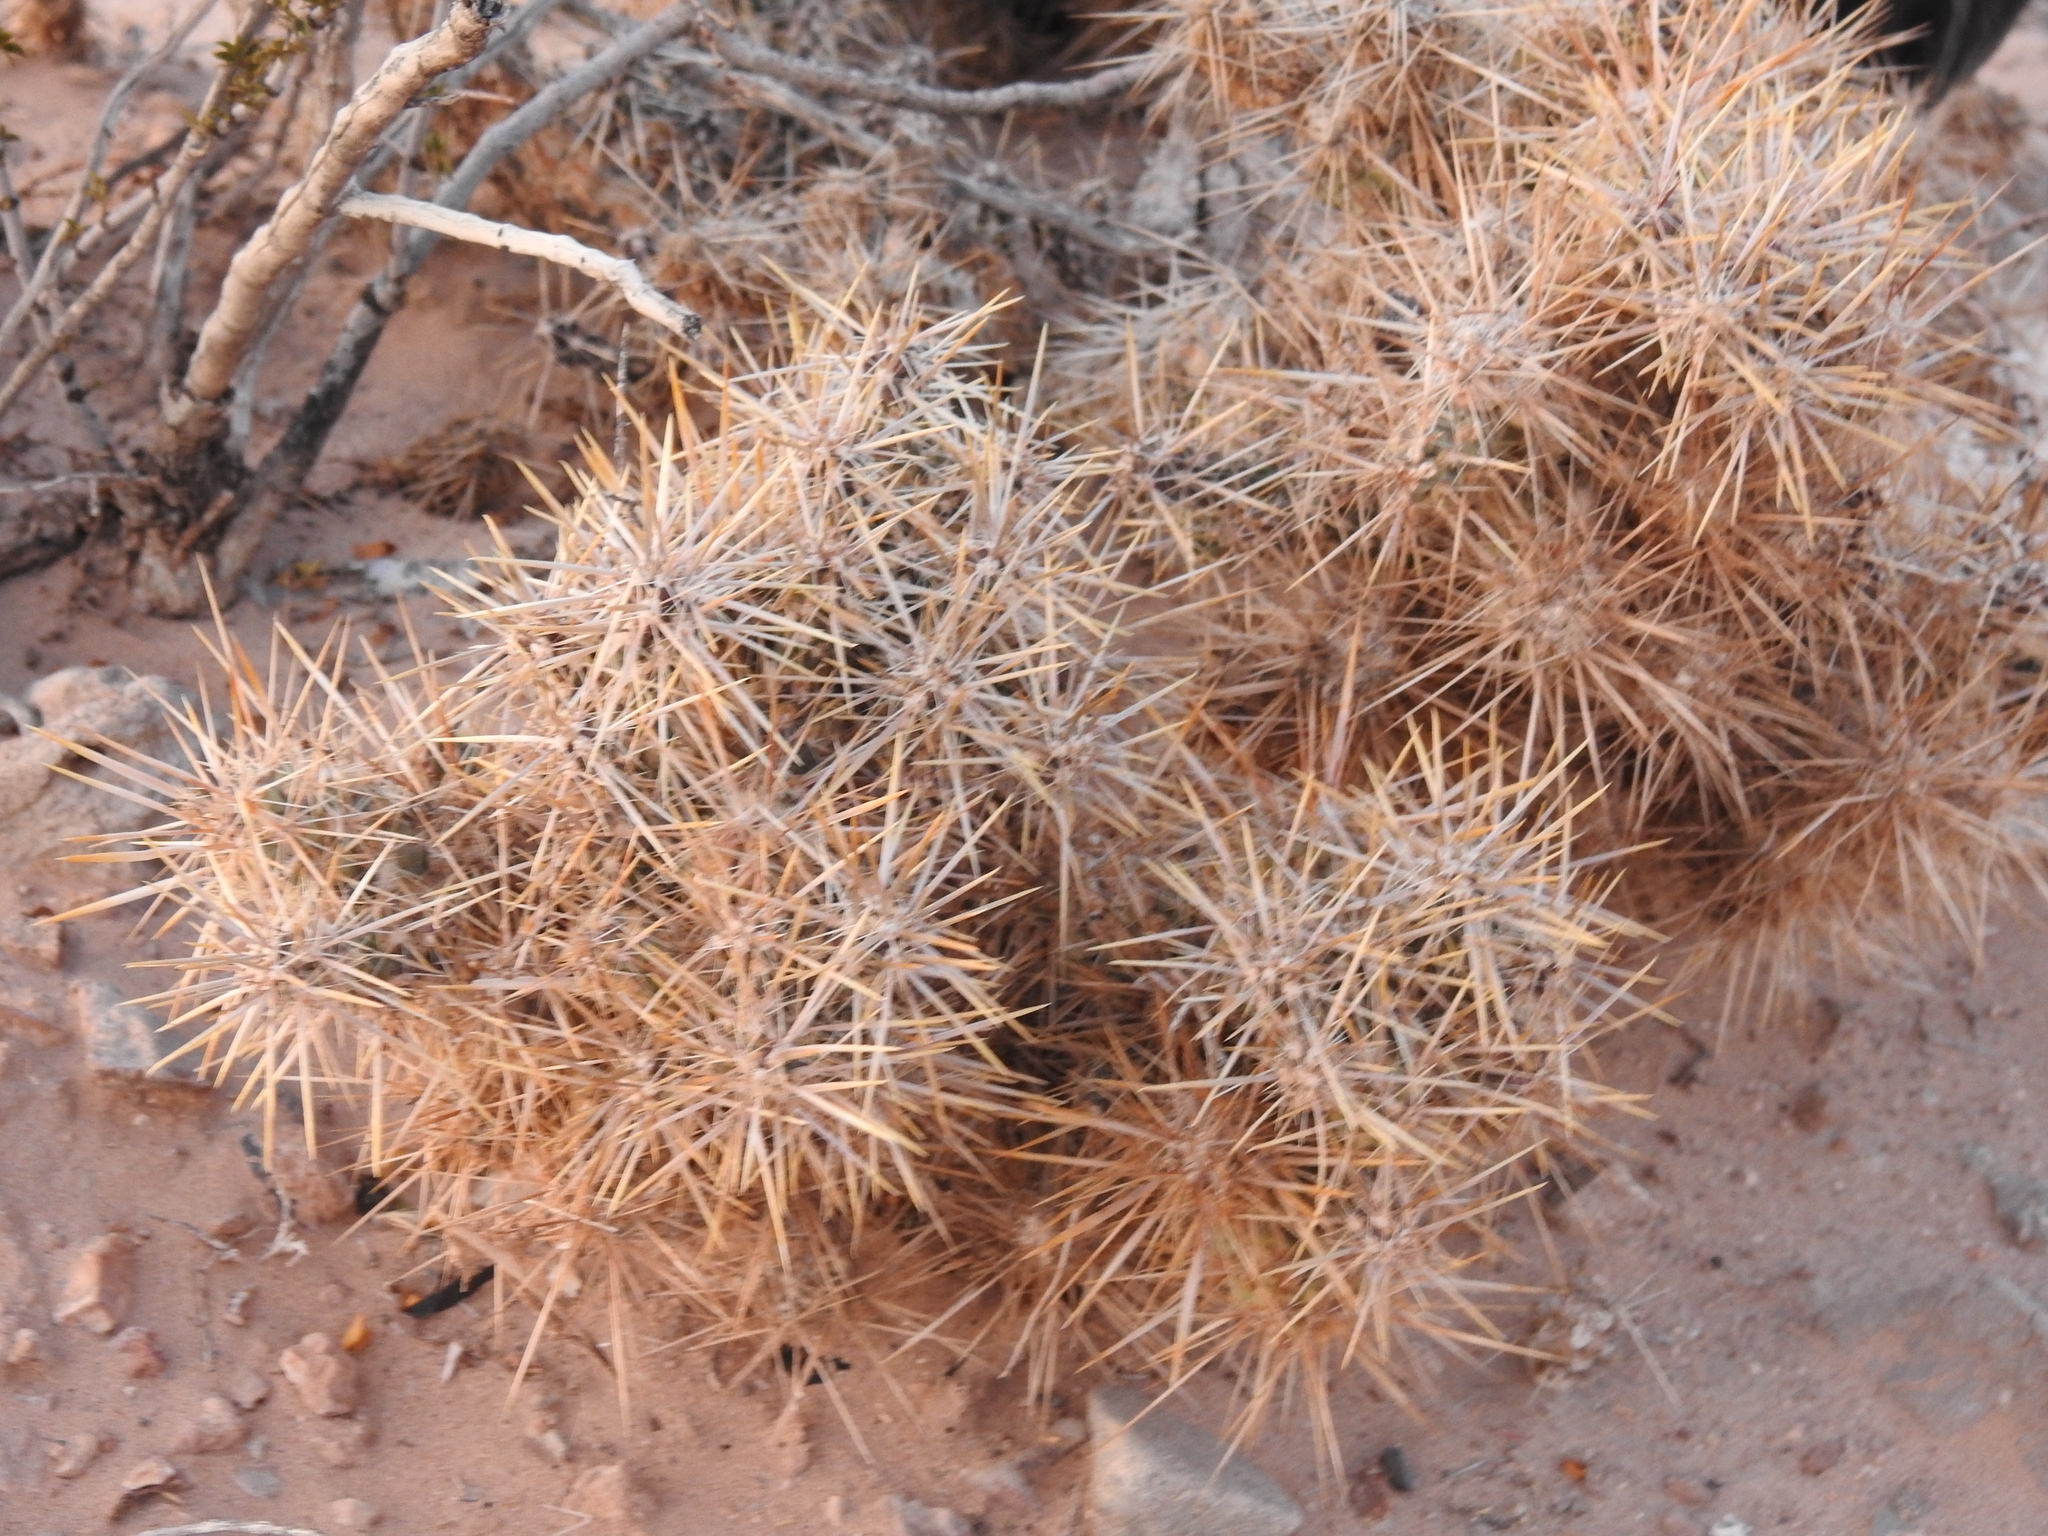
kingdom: Plantae
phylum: Tracheophyta
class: Magnoliopsida
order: Caryophyllales
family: Cactaceae
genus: Cylindropuntia
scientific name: Cylindropuntia echinocarpa
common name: Ground cholla
